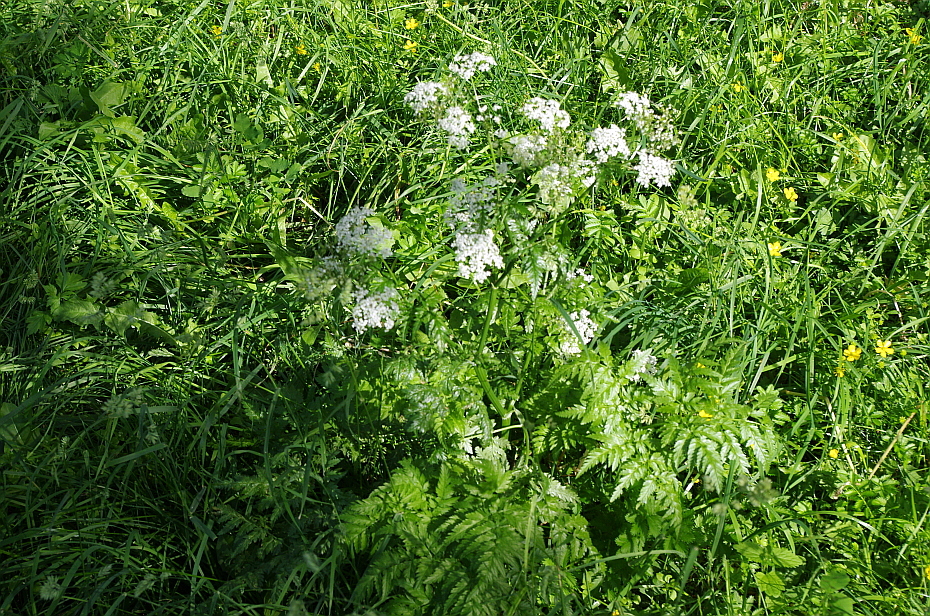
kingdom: Plantae
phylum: Tracheophyta
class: Magnoliopsida
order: Apiales
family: Apiaceae
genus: Anthriscus
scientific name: Anthriscus sylvestris
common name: Cow parsley
